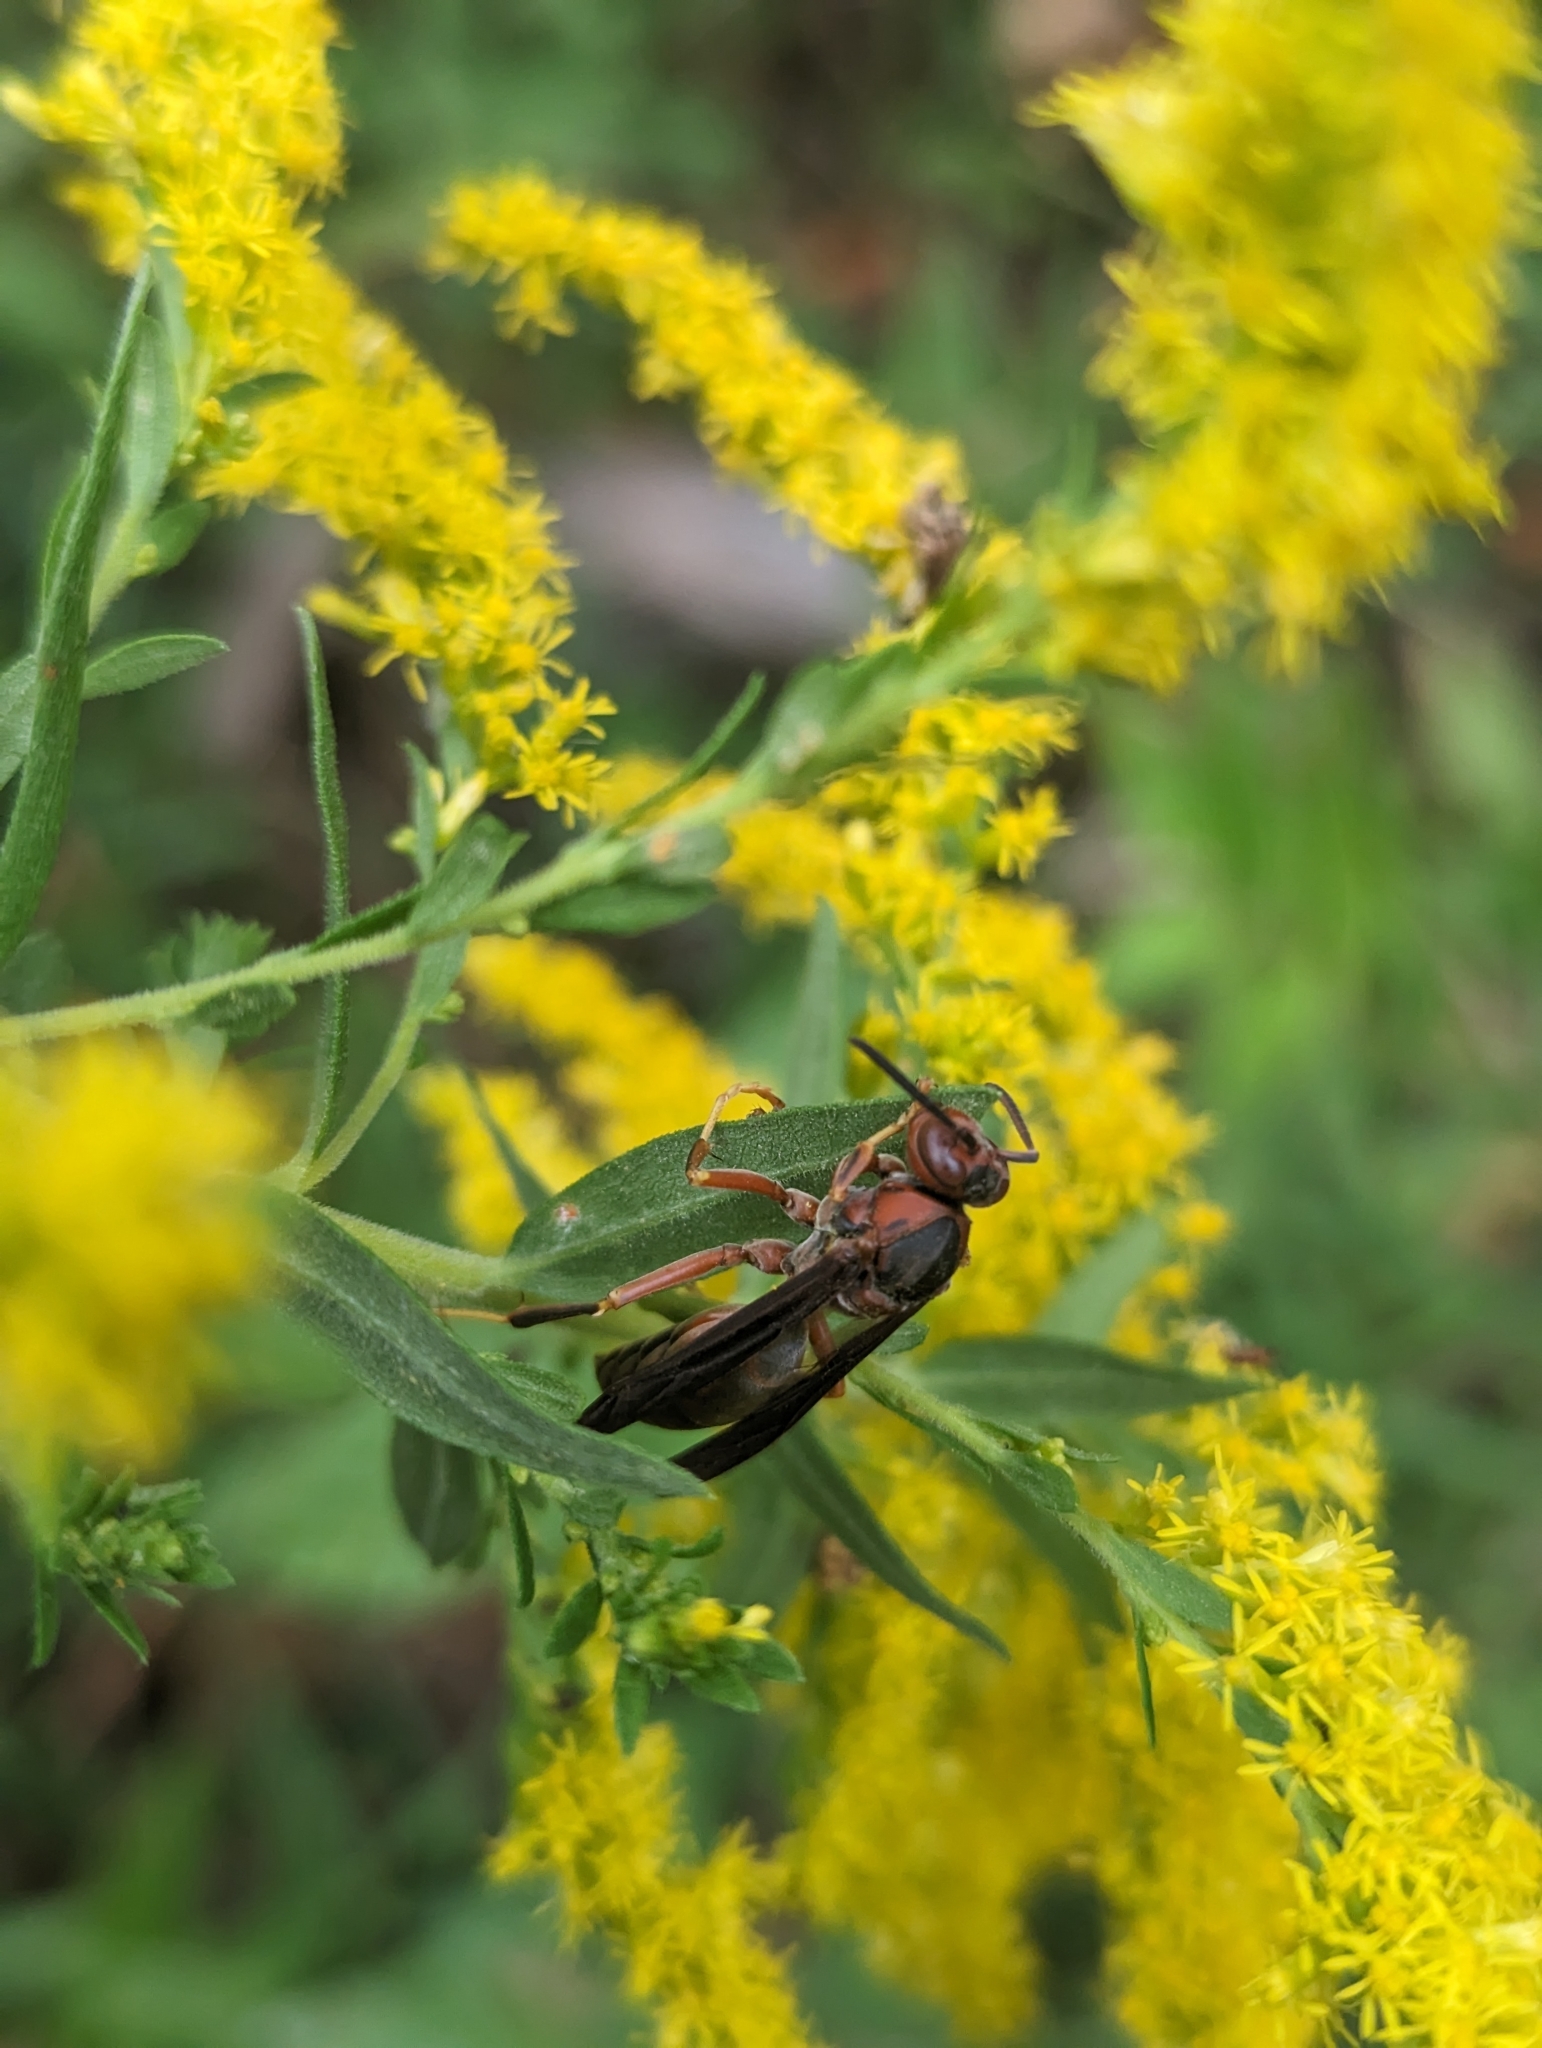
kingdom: Animalia
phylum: Arthropoda
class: Insecta
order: Hymenoptera
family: Eumenidae
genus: Polistes
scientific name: Polistes metricus
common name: Metric paper wasp
